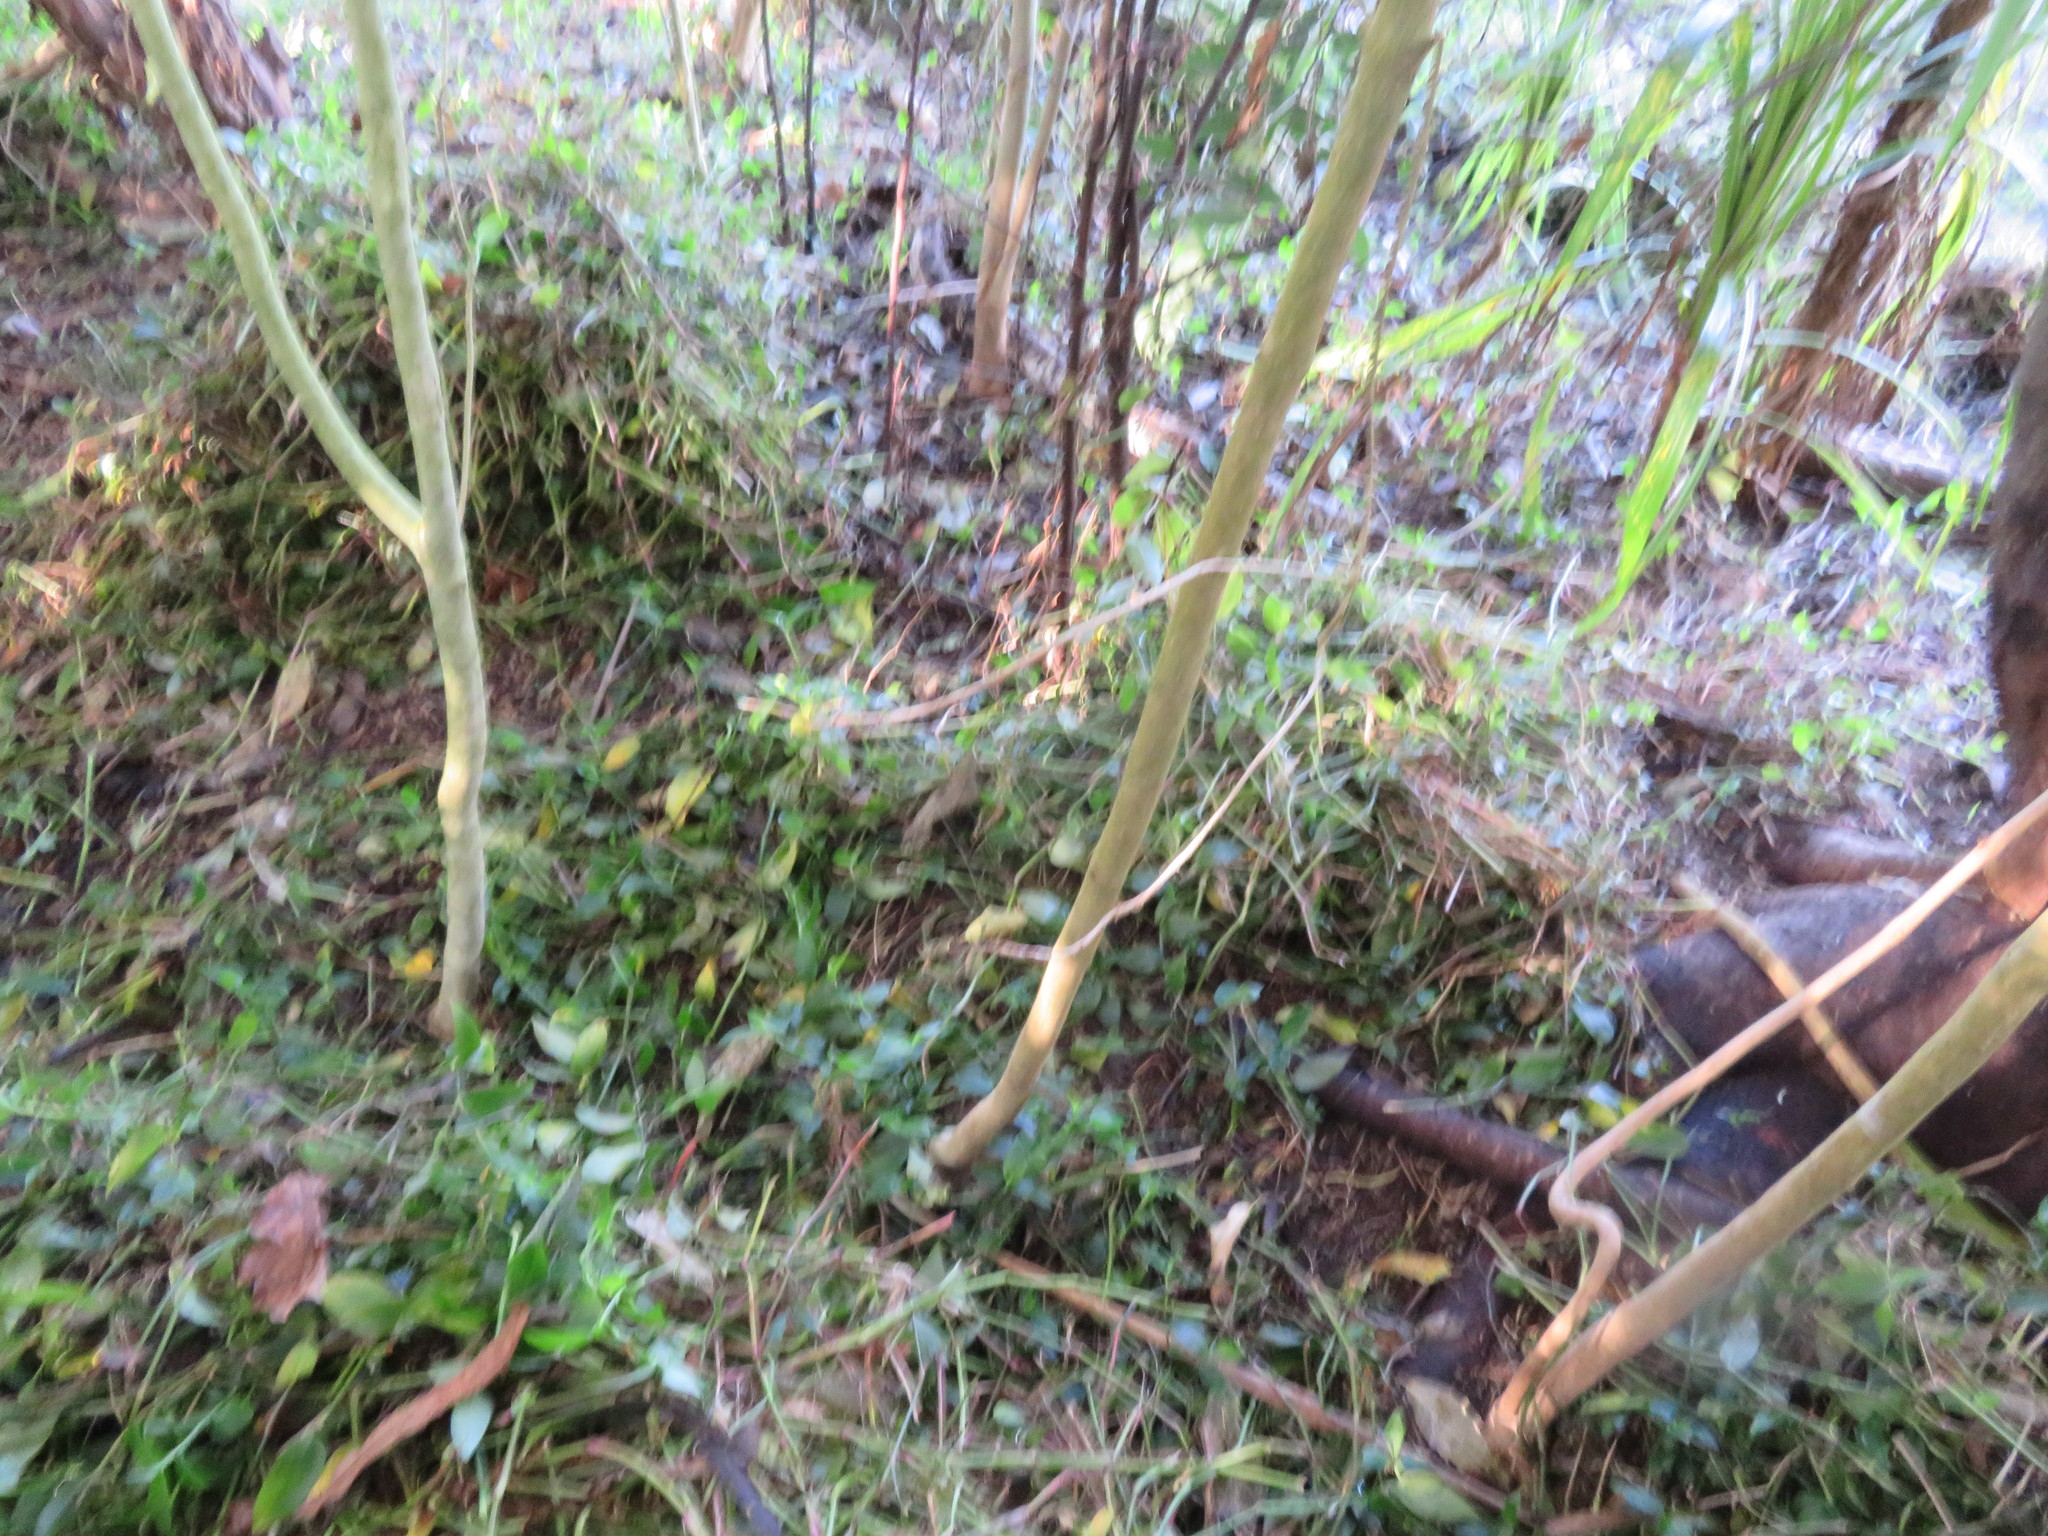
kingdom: Plantae
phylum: Tracheophyta
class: Liliopsida
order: Commelinales
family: Commelinaceae
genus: Tradescantia
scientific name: Tradescantia fluminensis
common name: Wandering-jew
